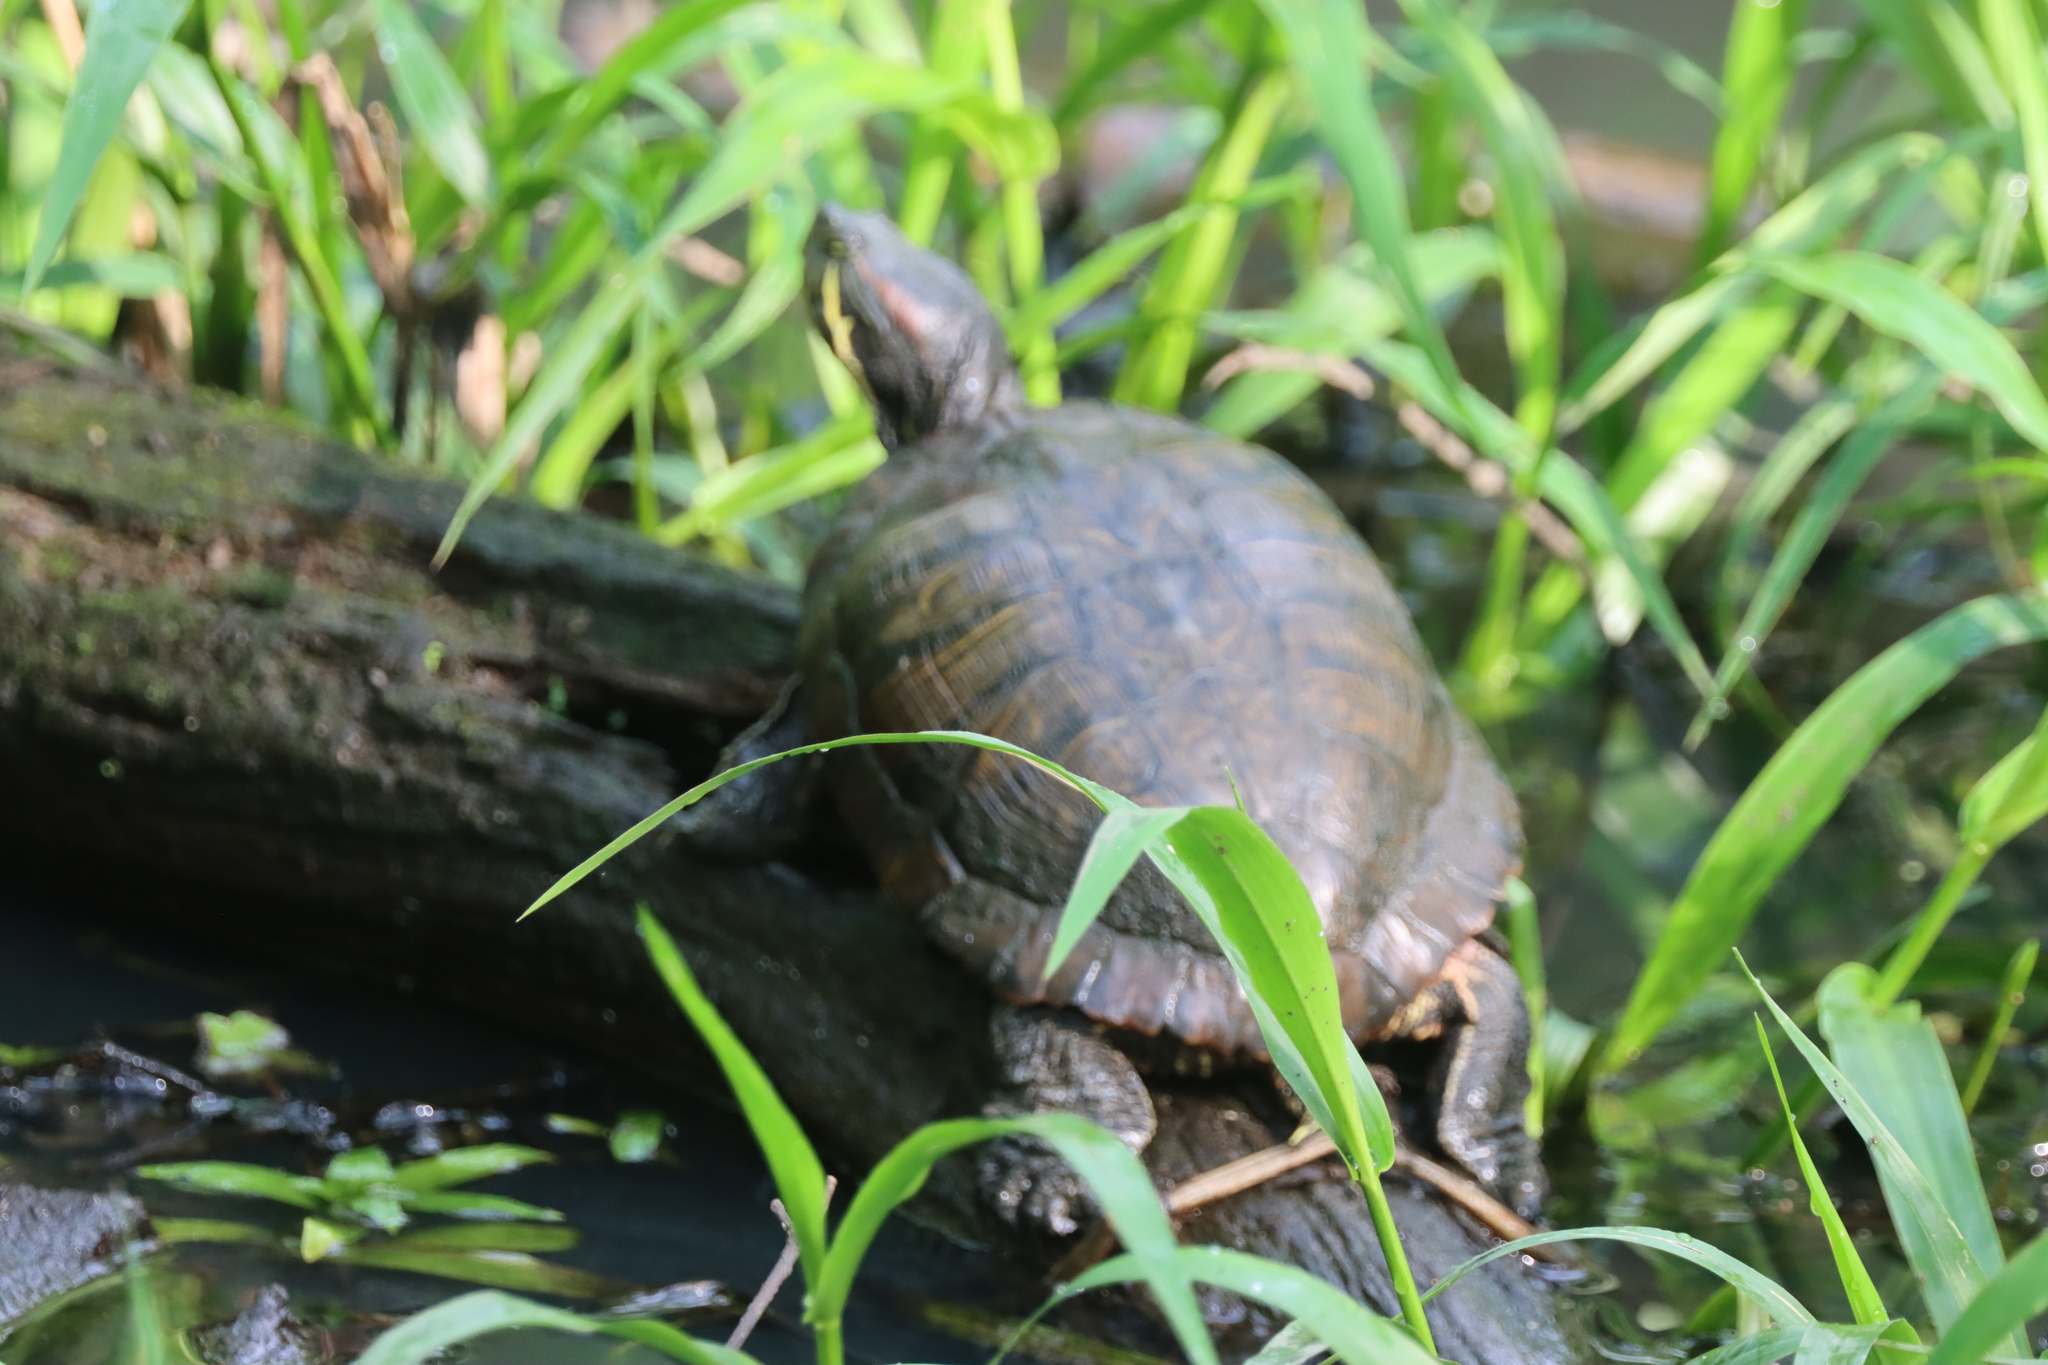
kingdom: Animalia
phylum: Chordata
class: Testudines
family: Emydidae
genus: Trachemys
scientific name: Trachemys scripta
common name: Slider
